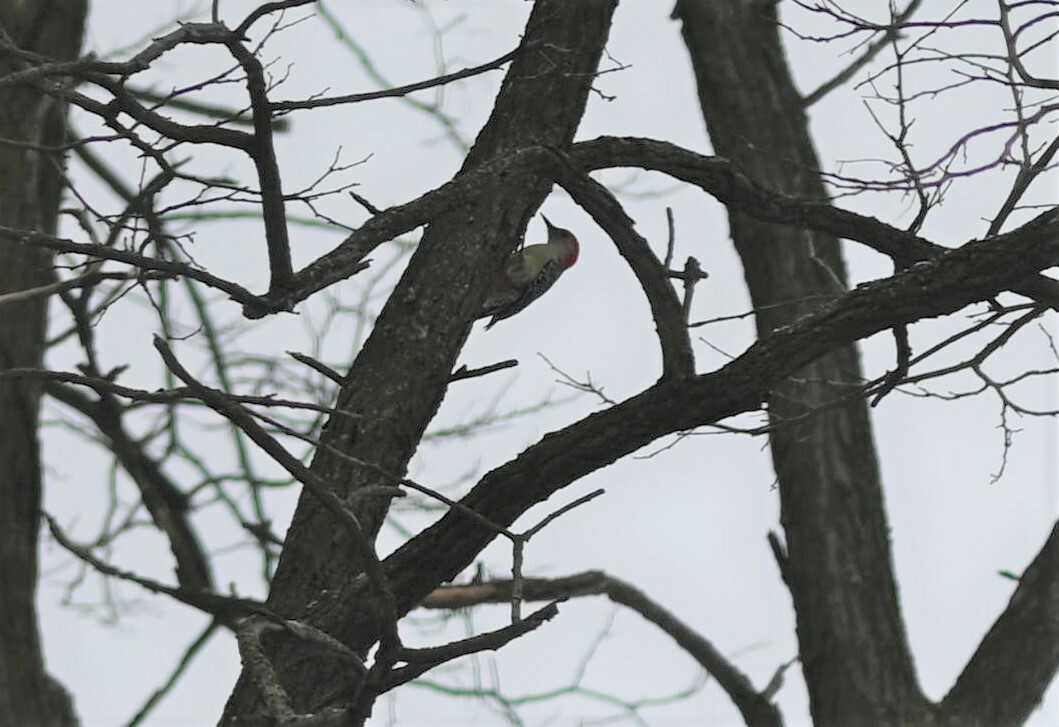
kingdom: Animalia
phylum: Chordata
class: Aves
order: Piciformes
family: Picidae
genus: Melanerpes
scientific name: Melanerpes carolinus
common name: Red-bellied woodpecker
